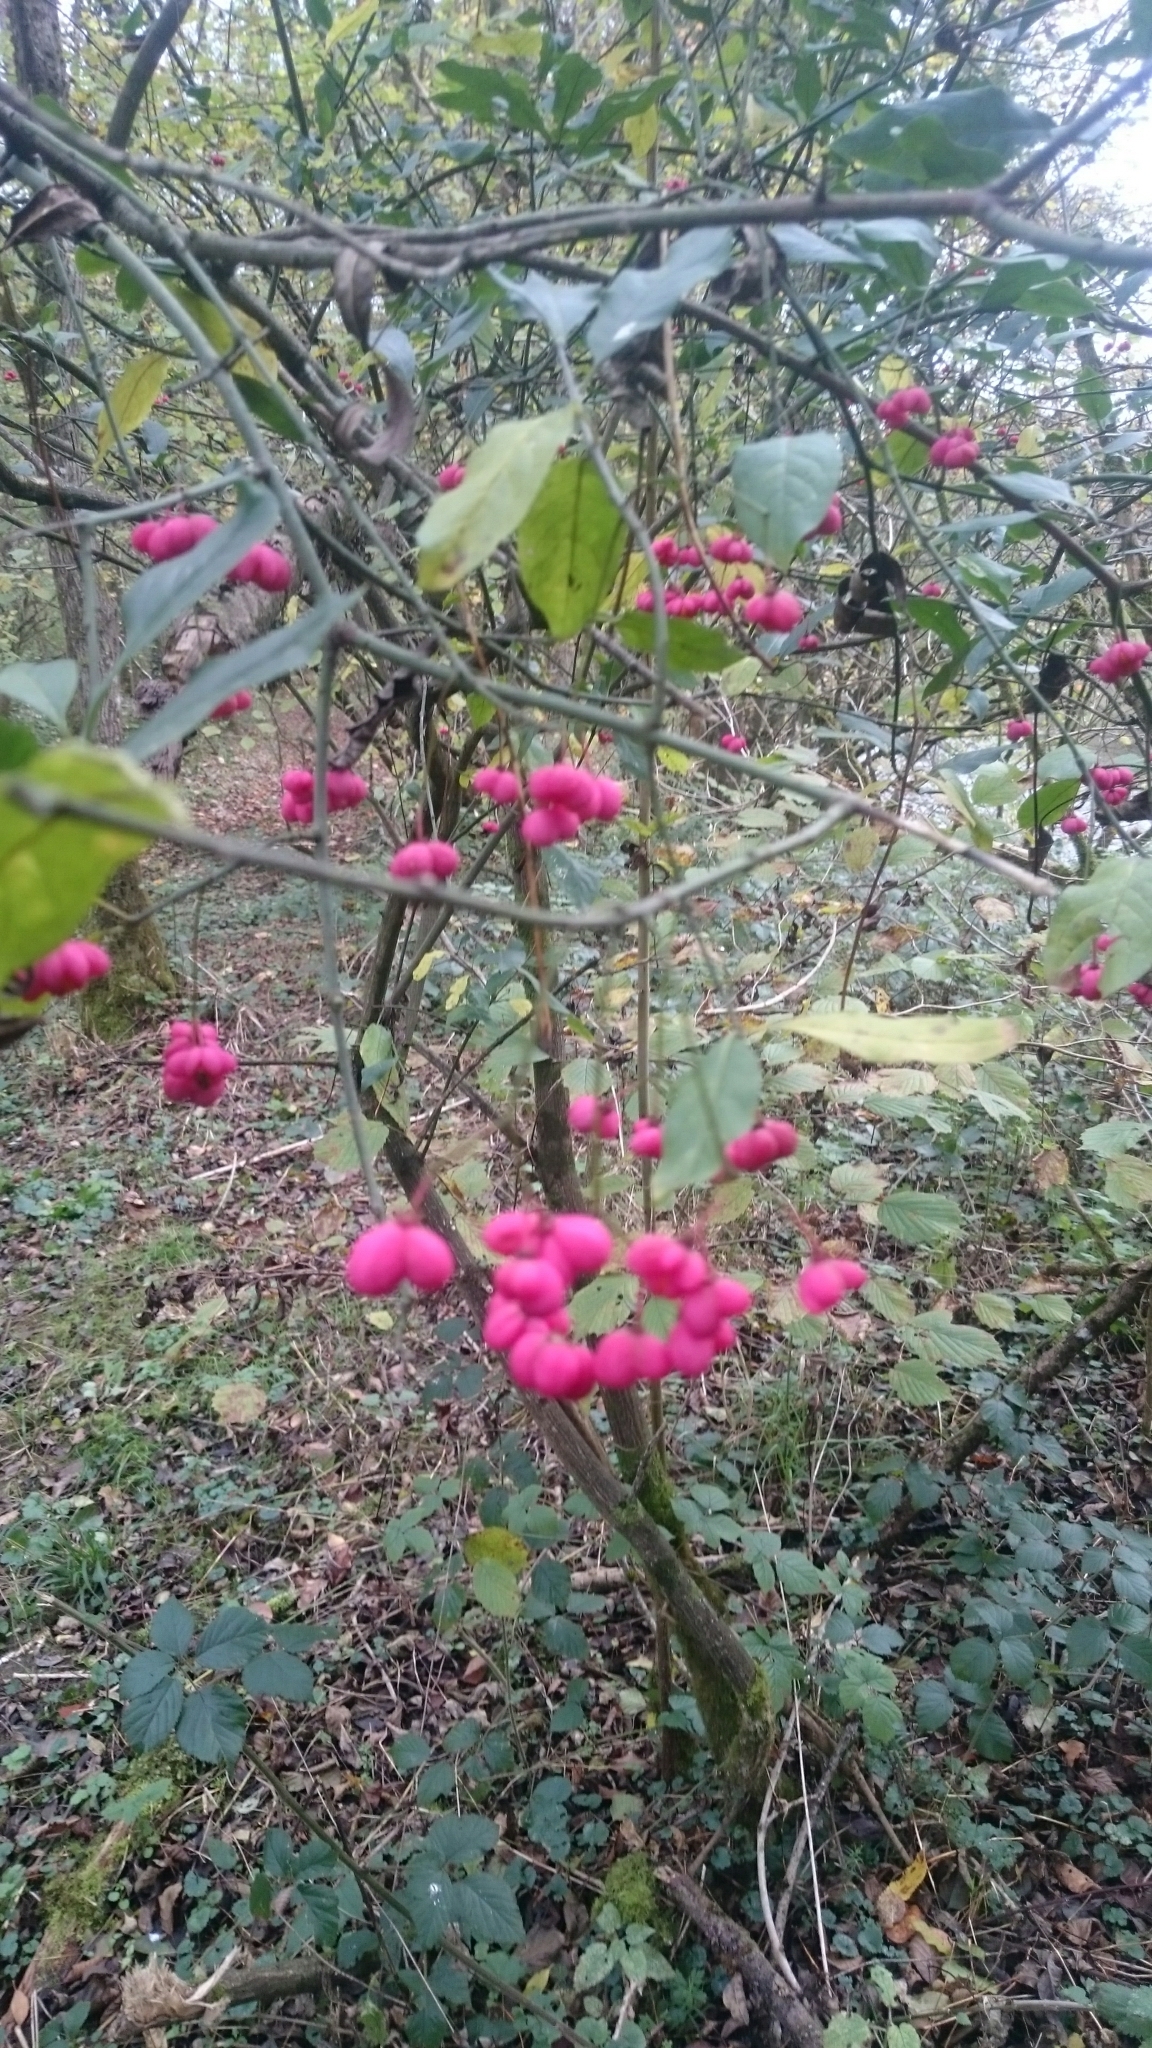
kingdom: Plantae
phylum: Tracheophyta
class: Magnoliopsida
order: Celastrales
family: Celastraceae
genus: Euonymus
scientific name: Euonymus europaeus
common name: Spindle
